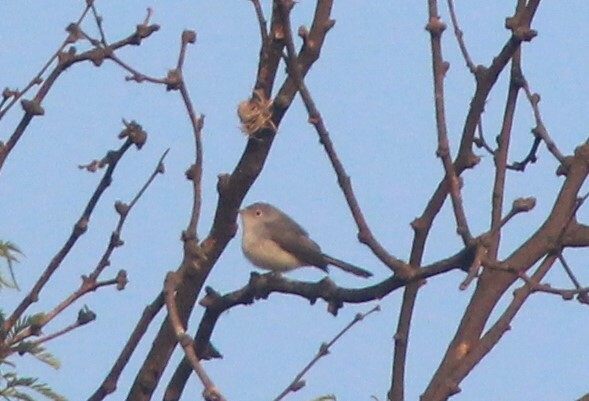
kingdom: Animalia
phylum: Chordata
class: Aves
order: Passeriformes
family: Polioptilidae
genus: Polioptila
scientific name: Polioptila caerulea
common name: Blue-gray gnatcatcher
